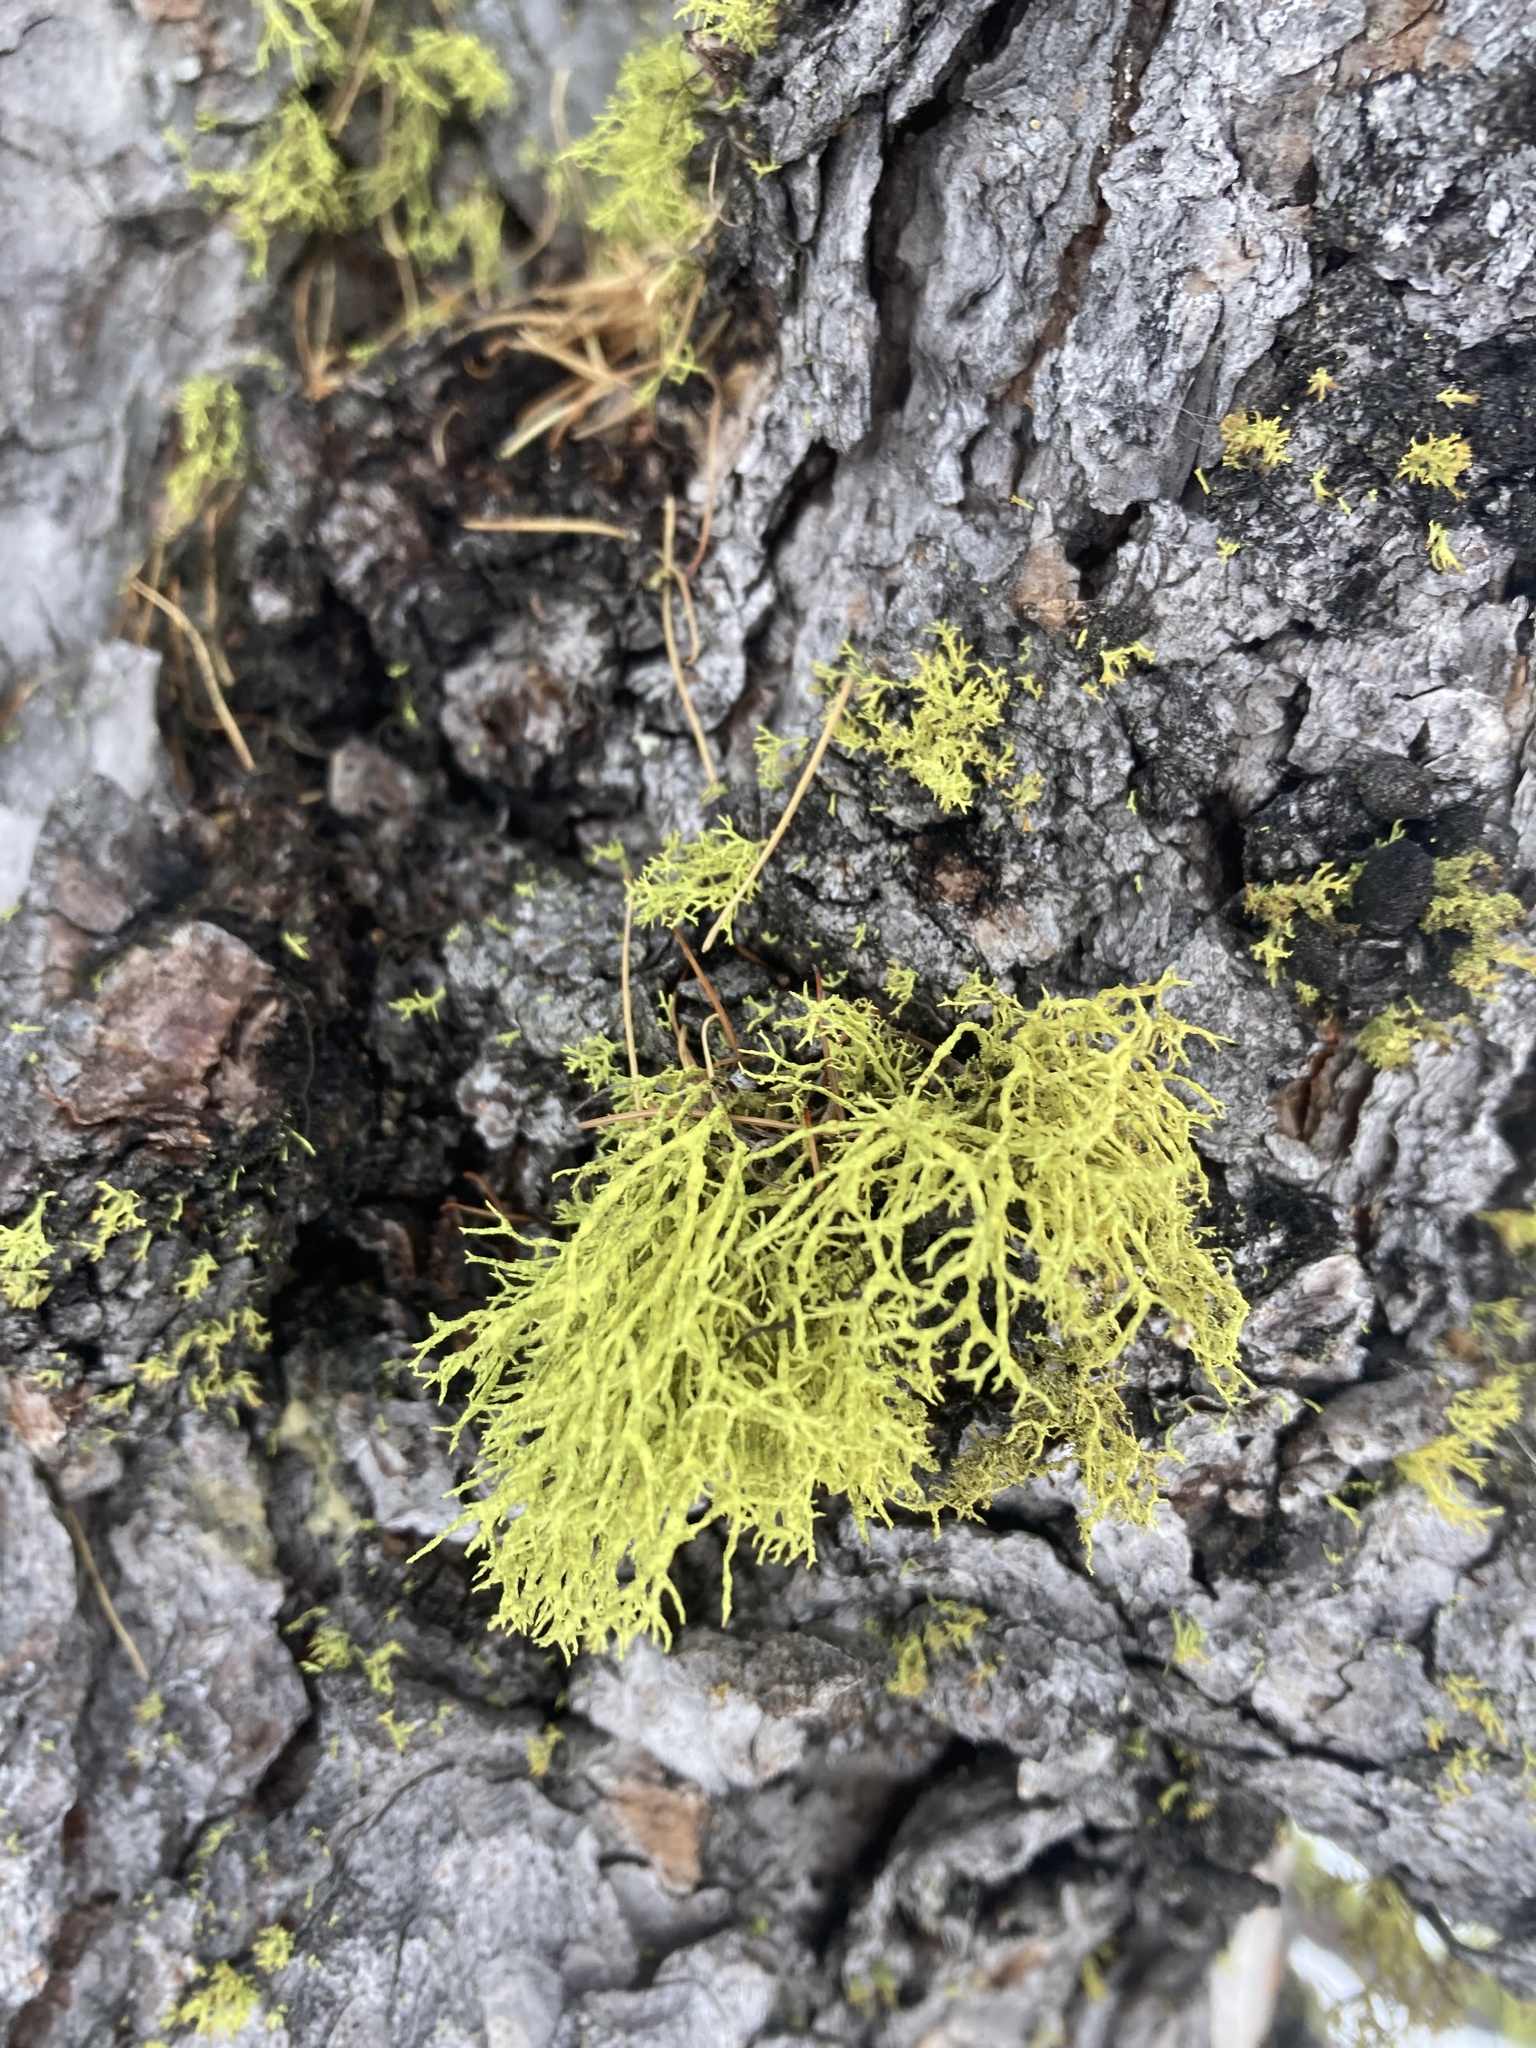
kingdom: Fungi
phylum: Ascomycota
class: Lecanoromycetes
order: Lecanorales
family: Parmeliaceae
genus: Letharia
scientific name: Letharia vulpina
